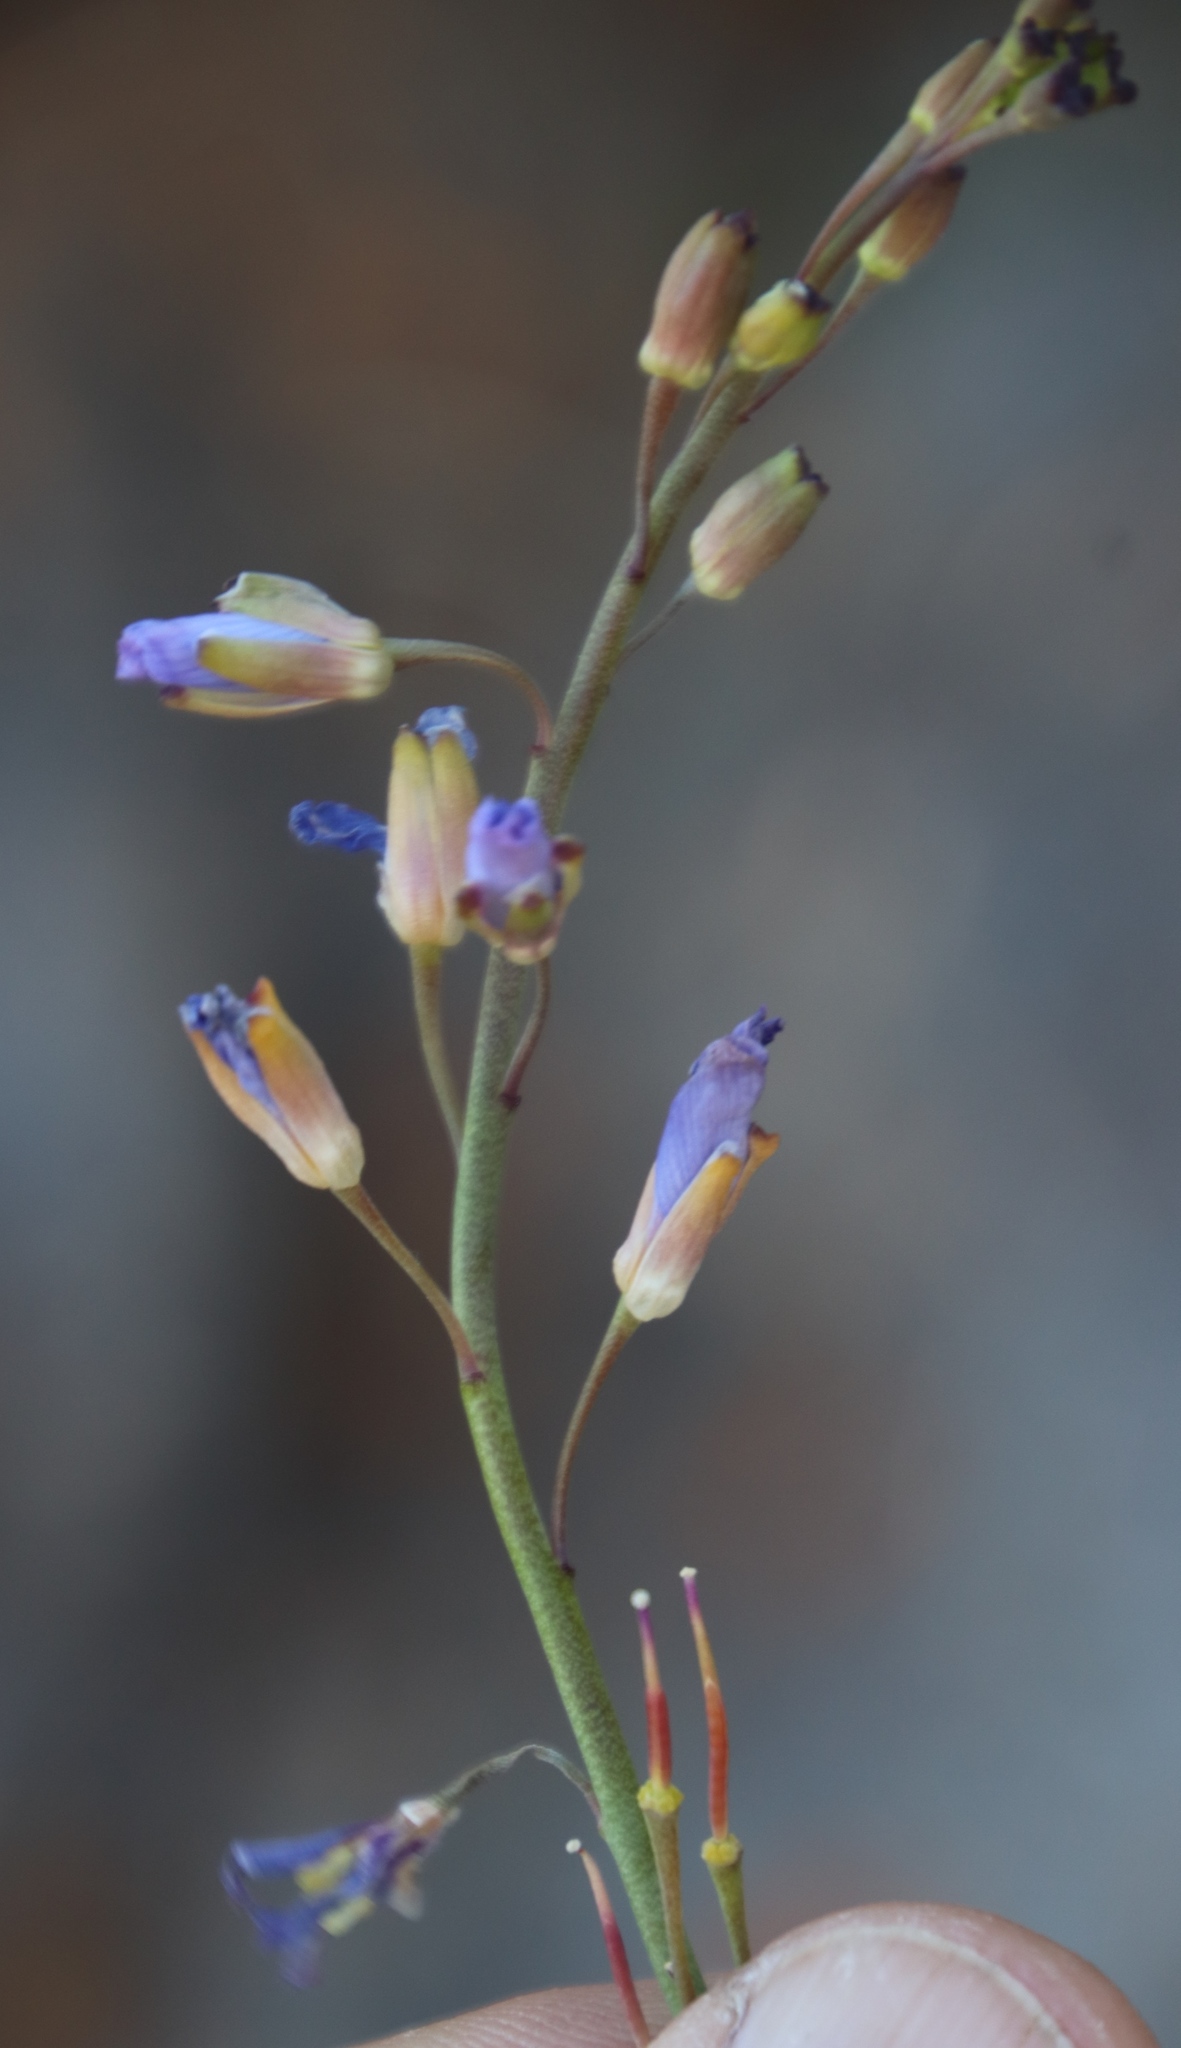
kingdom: Plantae
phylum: Tracheophyta
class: Magnoliopsida
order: Brassicales
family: Brassicaceae
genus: Heliophila
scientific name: Heliophila linearis
